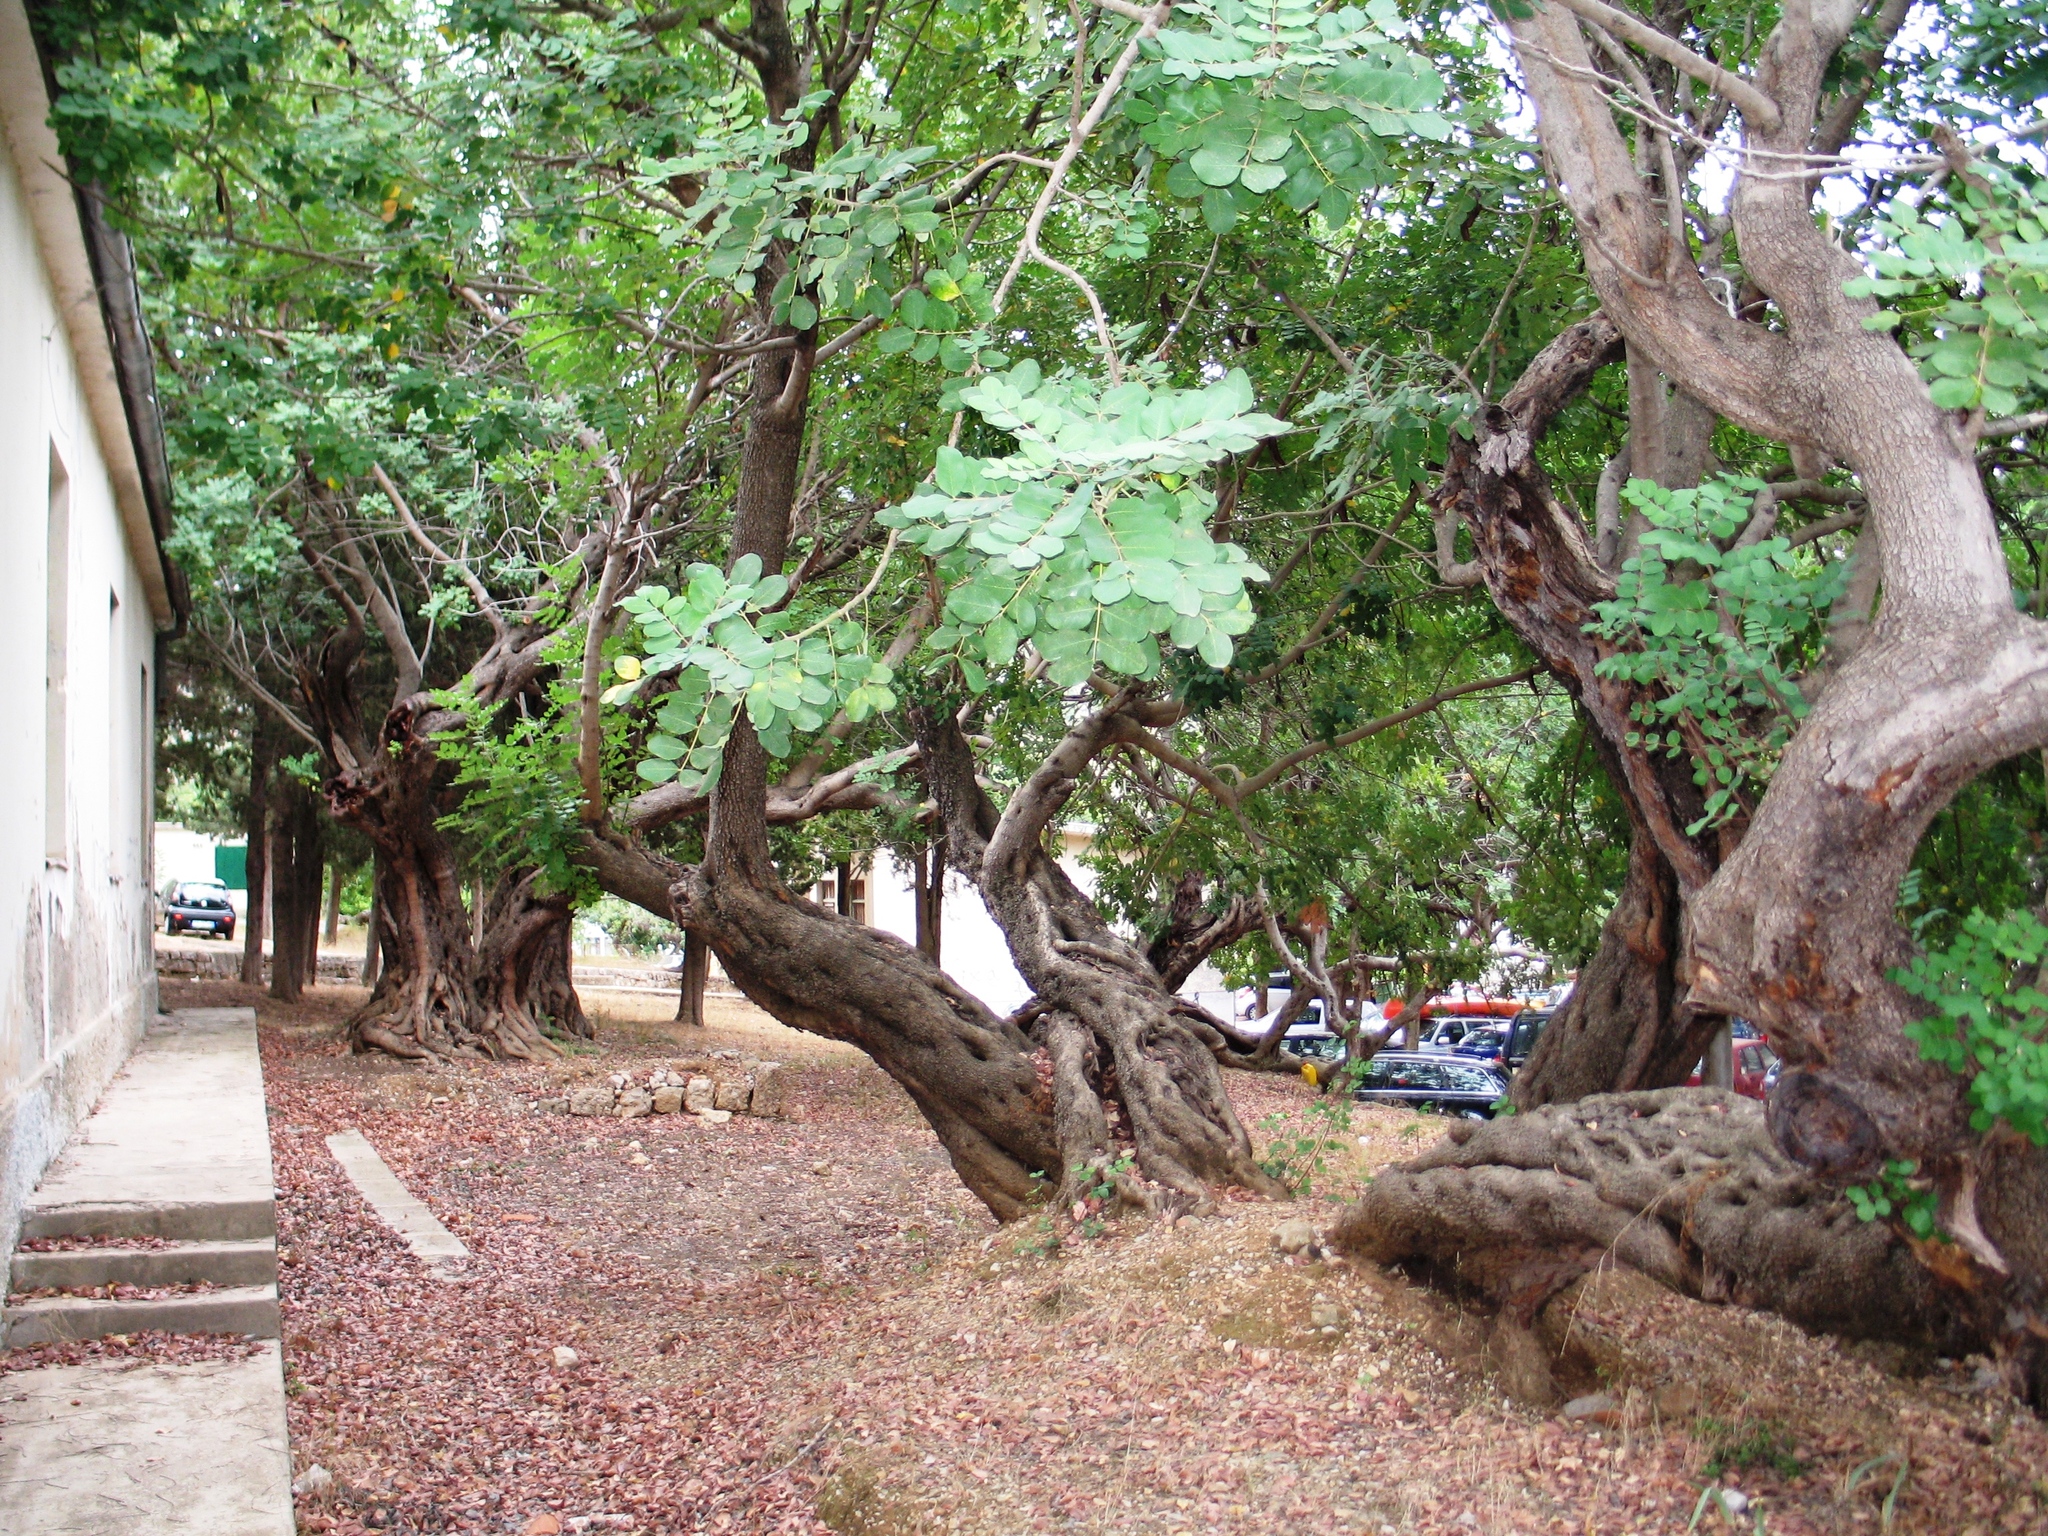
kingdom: Plantae
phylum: Tracheophyta
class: Magnoliopsida
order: Fabales
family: Fabaceae
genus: Ceratonia
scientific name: Ceratonia siliqua
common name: Carob
